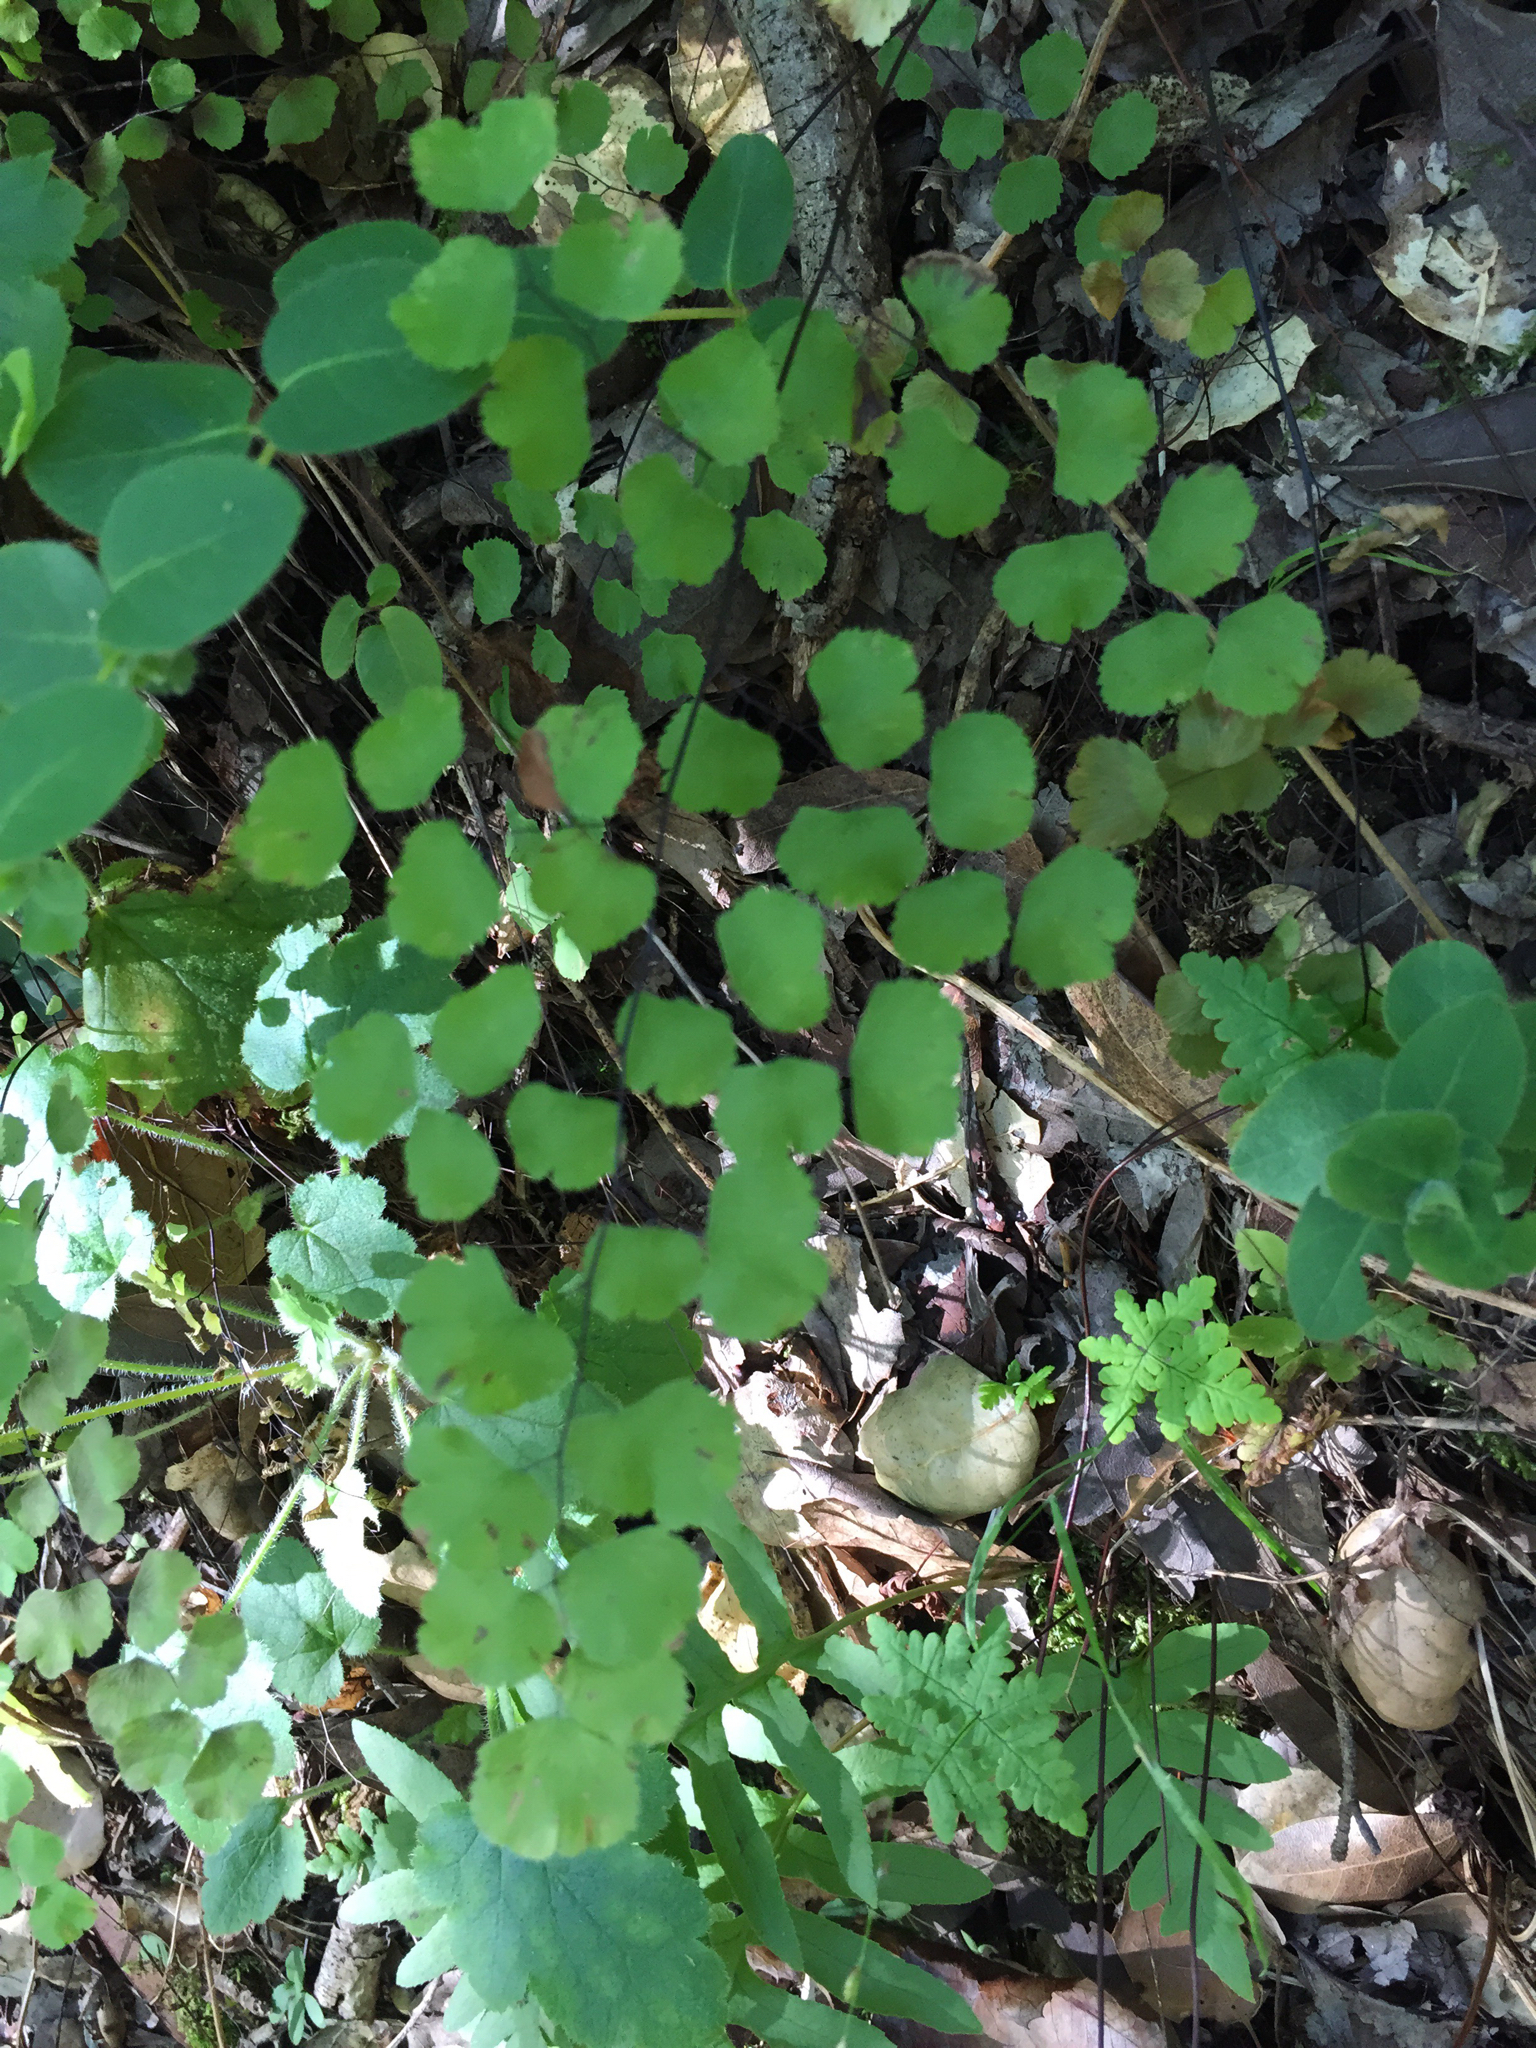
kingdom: Plantae
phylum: Tracheophyta
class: Polypodiopsida
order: Polypodiales
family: Pteridaceae
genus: Adiantum
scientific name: Adiantum jordanii
